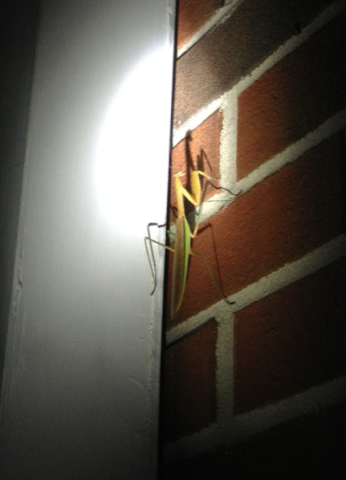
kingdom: Animalia
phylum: Arthropoda
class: Insecta
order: Mantodea
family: Mantidae
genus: Tenodera
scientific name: Tenodera sinensis
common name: Chinese mantis
